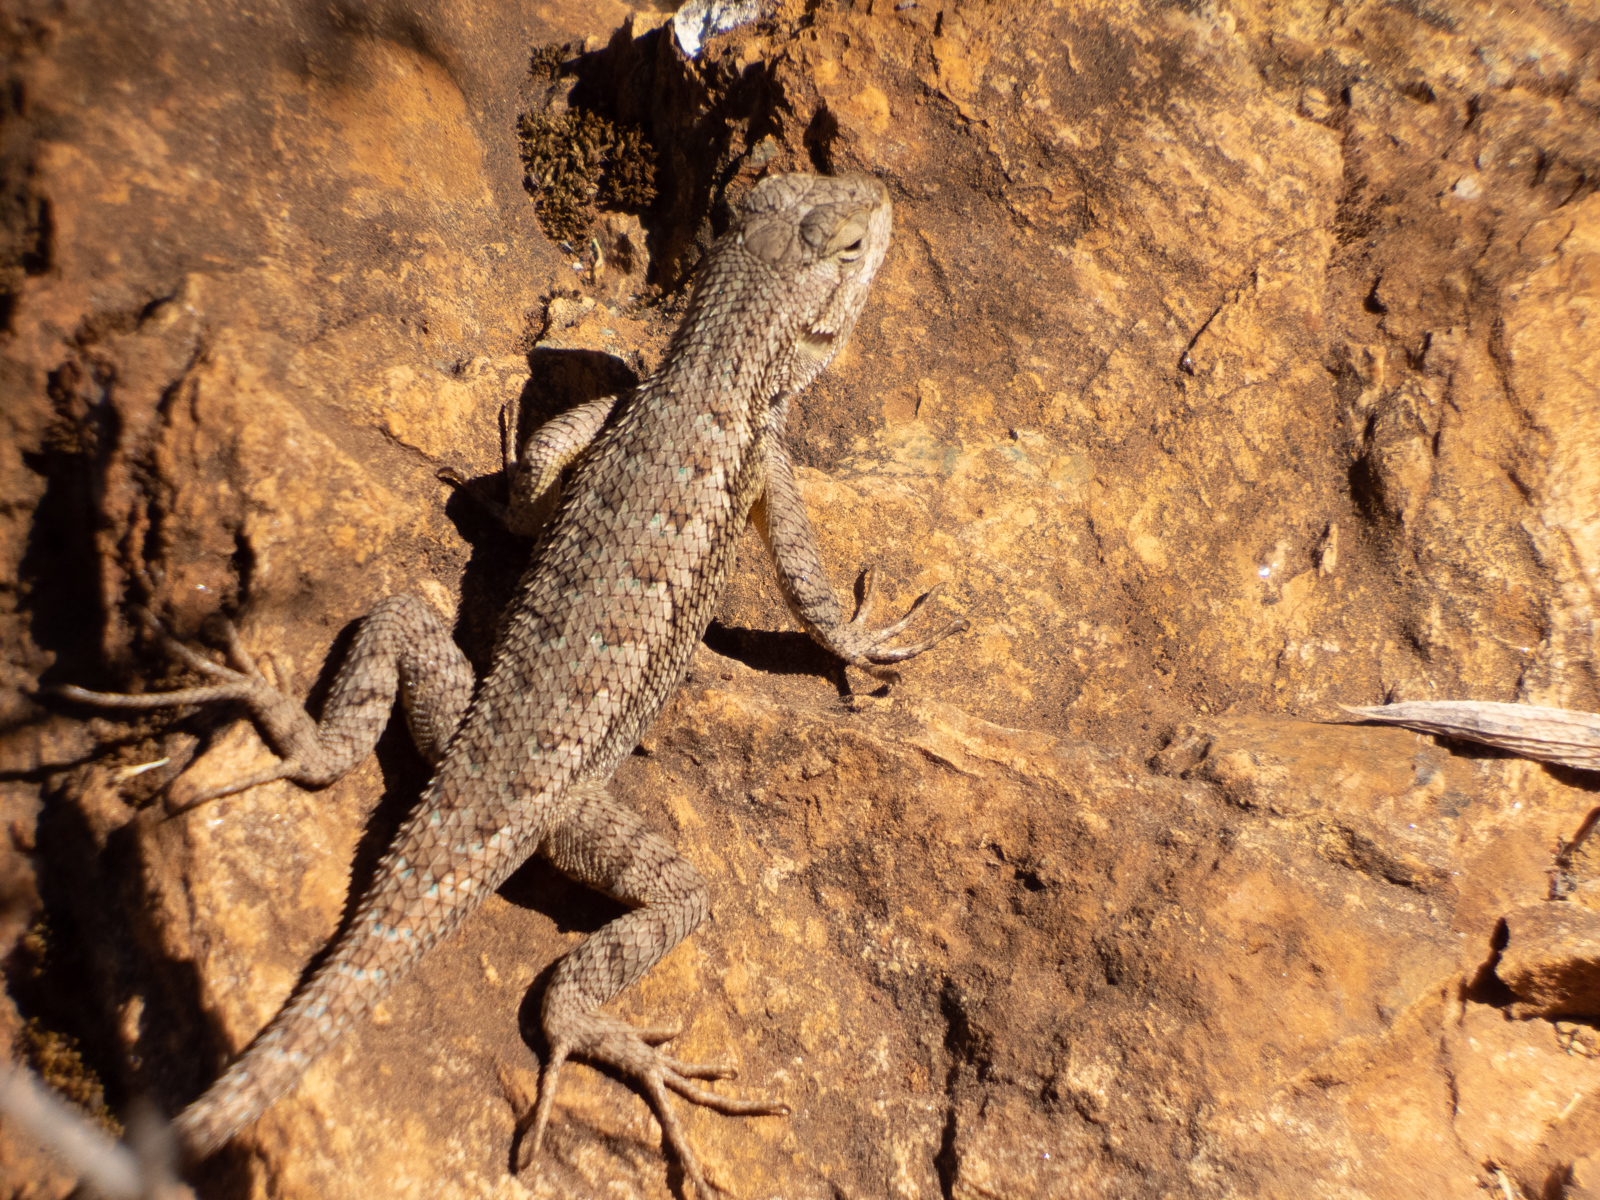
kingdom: Animalia
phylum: Chordata
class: Squamata
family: Phrynosomatidae
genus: Sceloporus
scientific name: Sceloporus occidentalis
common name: Western fence lizard
